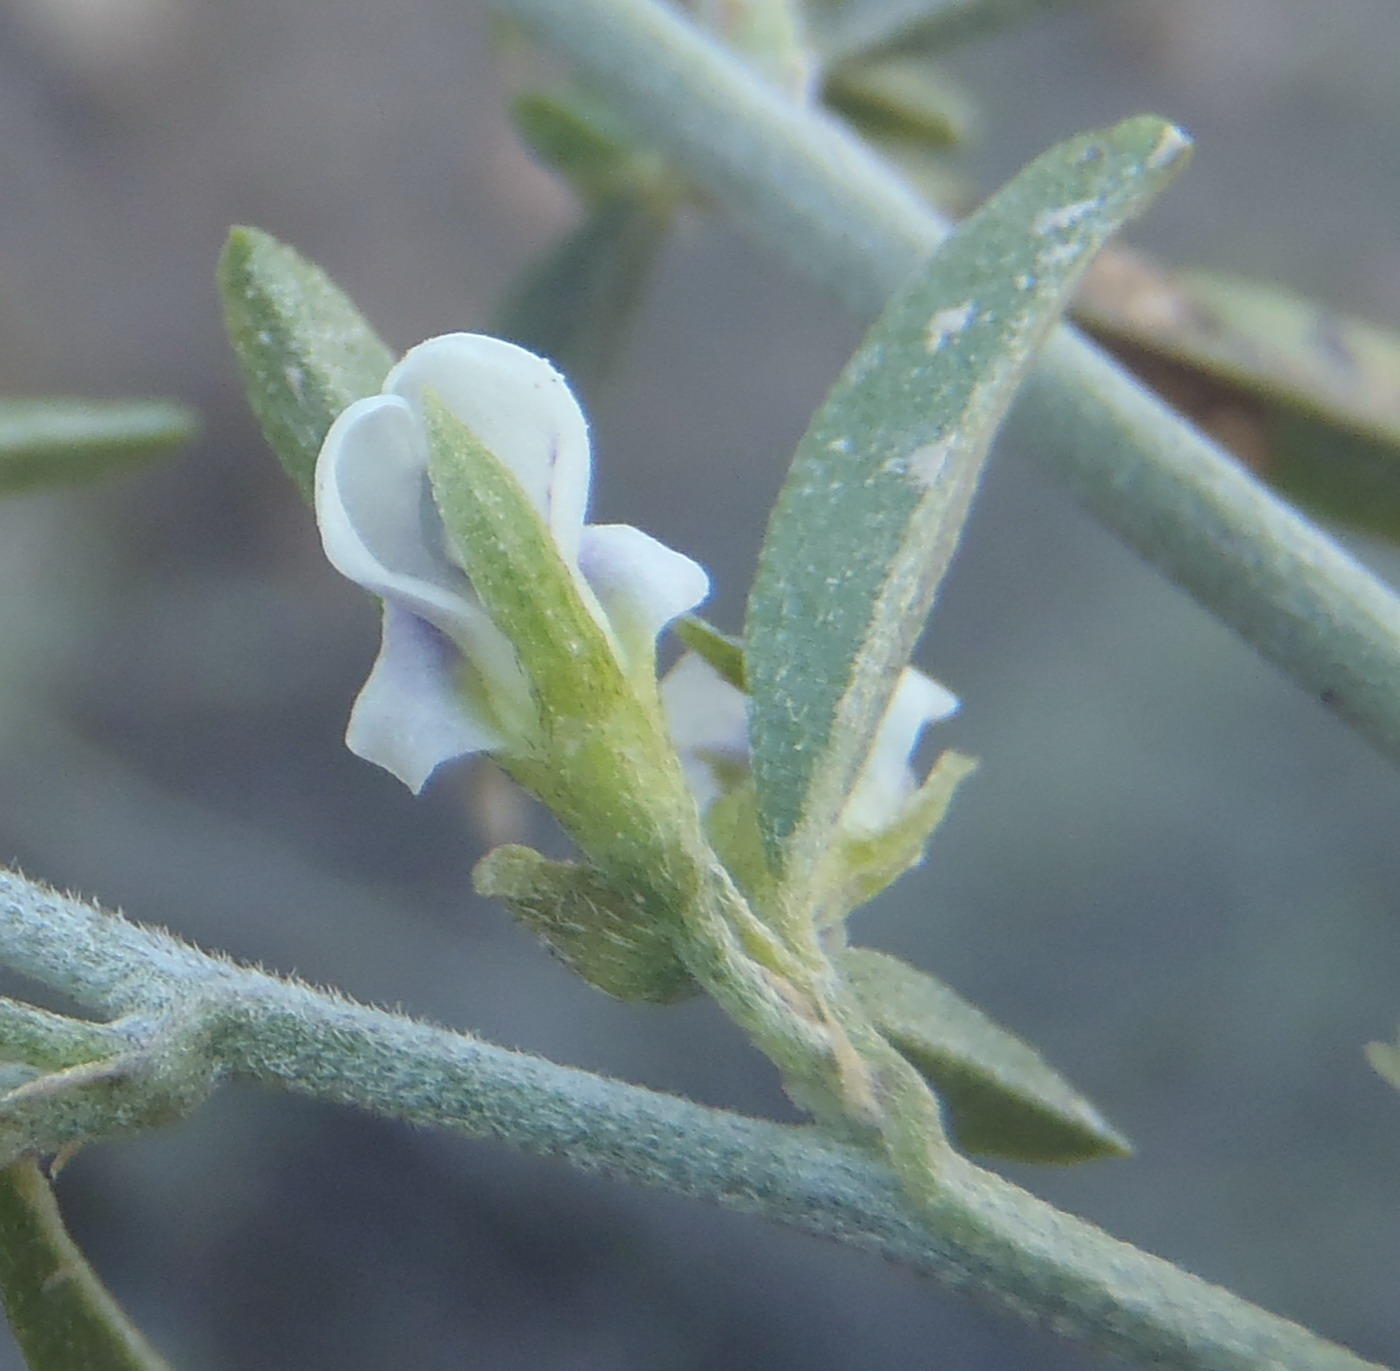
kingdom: Plantae
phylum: Tracheophyta
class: Magnoliopsida
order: Fabales
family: Fabaceae
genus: Psoralea
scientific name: Psoralea candicans
